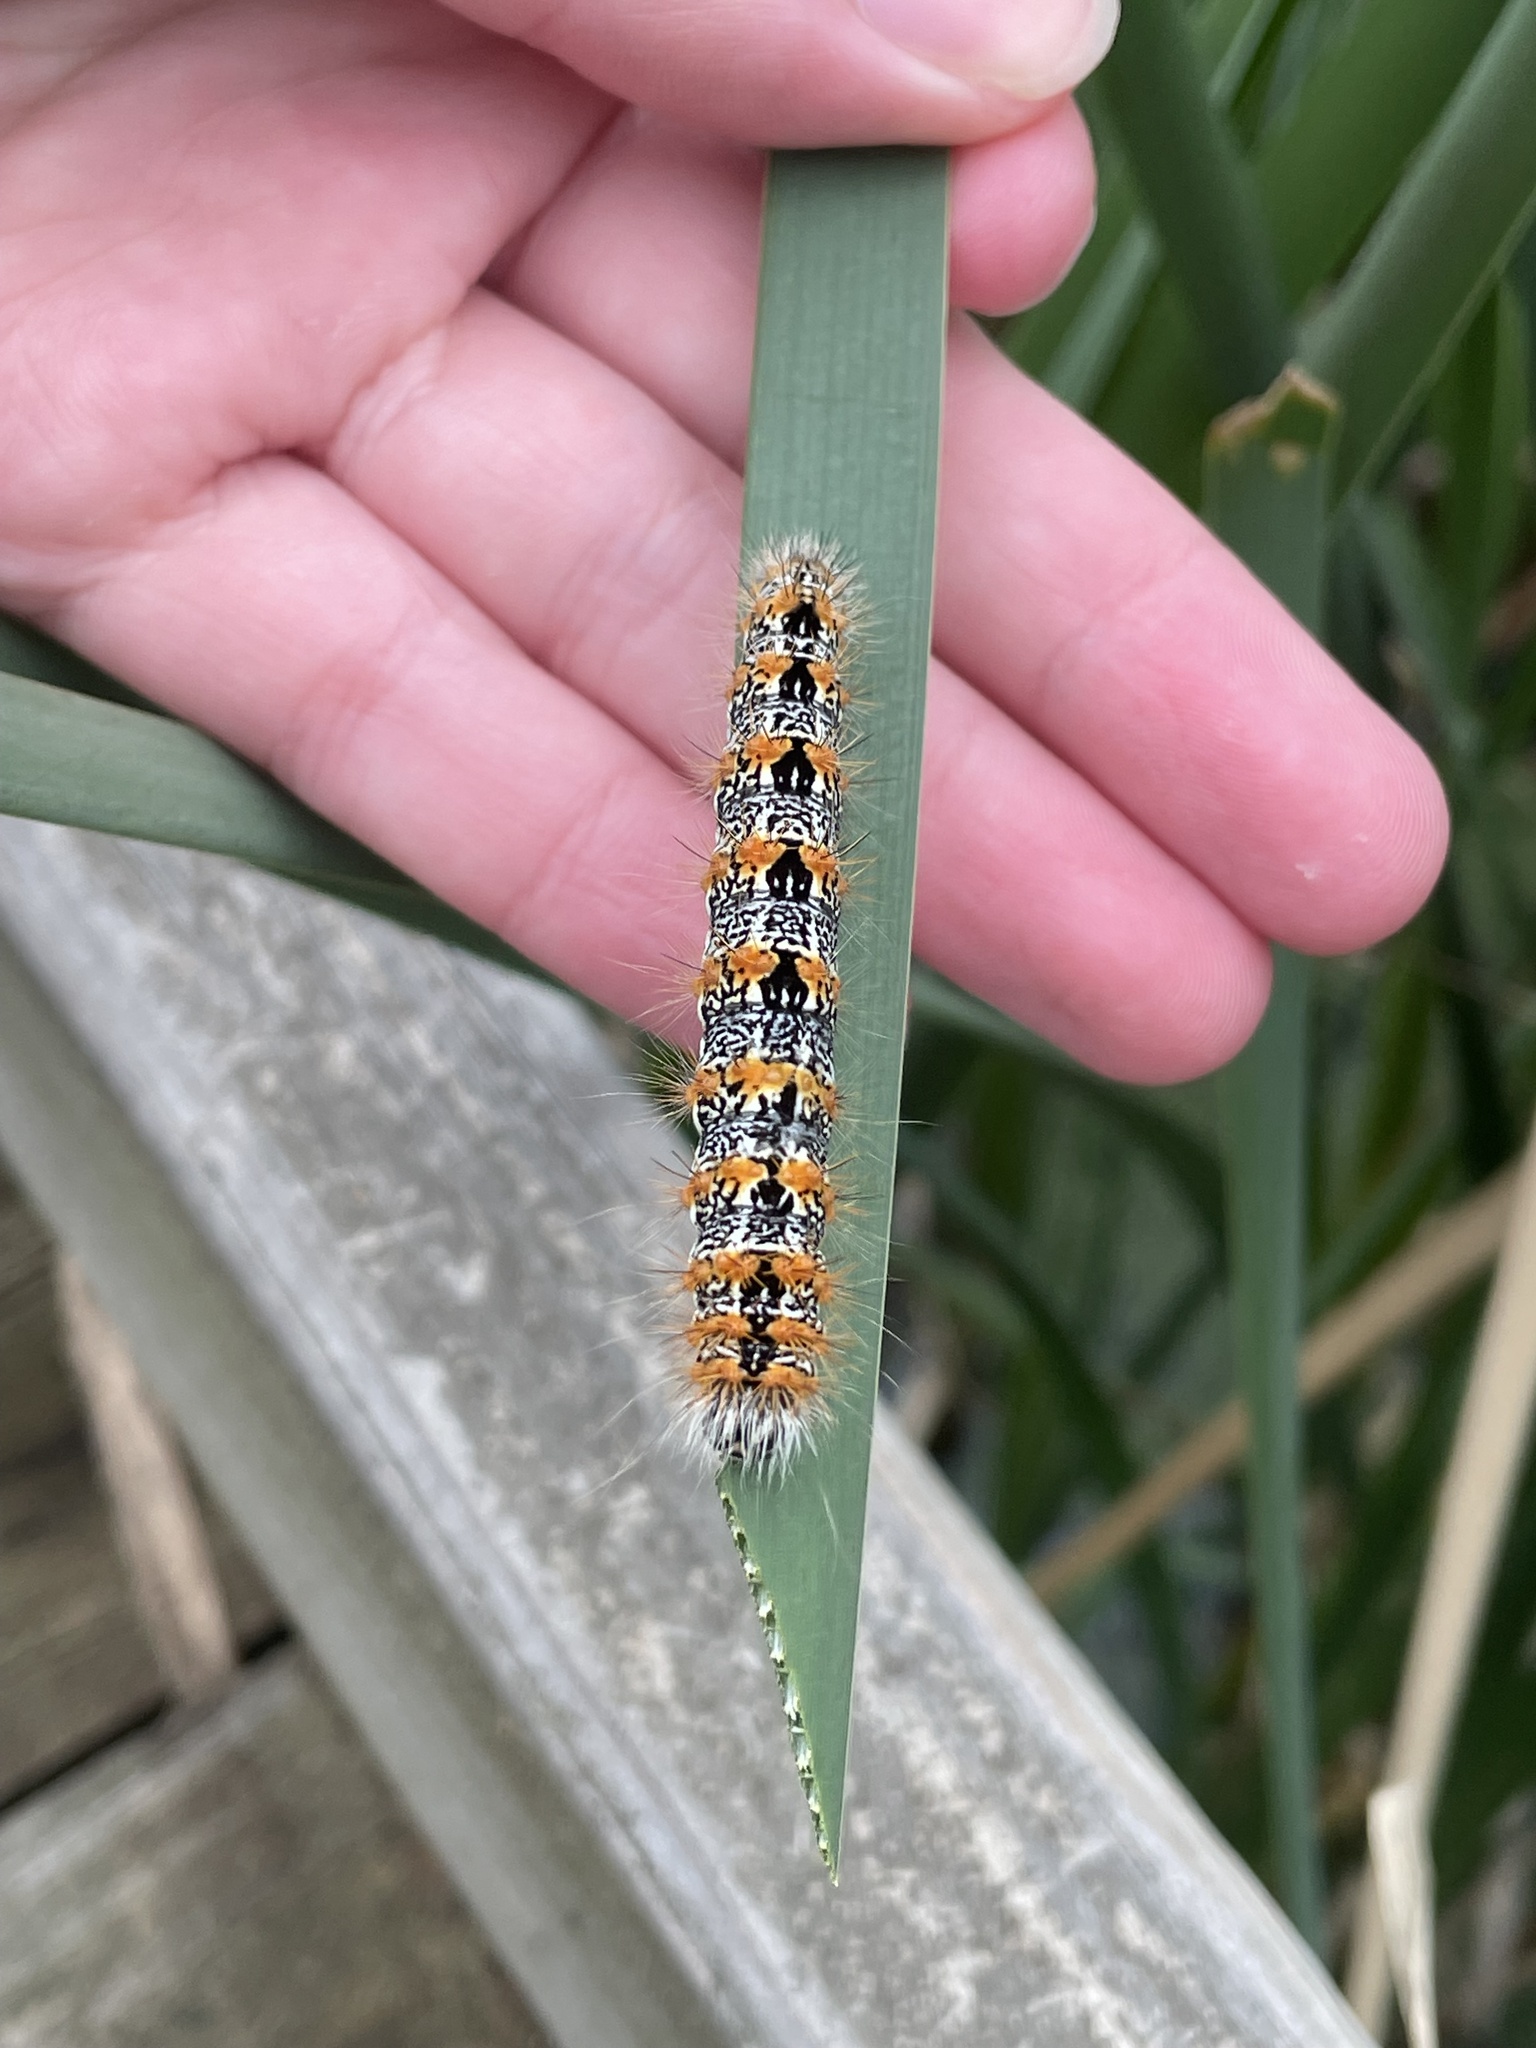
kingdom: Animalia
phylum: Arthropoda
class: Insecta
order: Lepidoptera
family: Noctuidae
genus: Acronicta
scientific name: Acronicta insularis
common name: Henry's marsh moth
